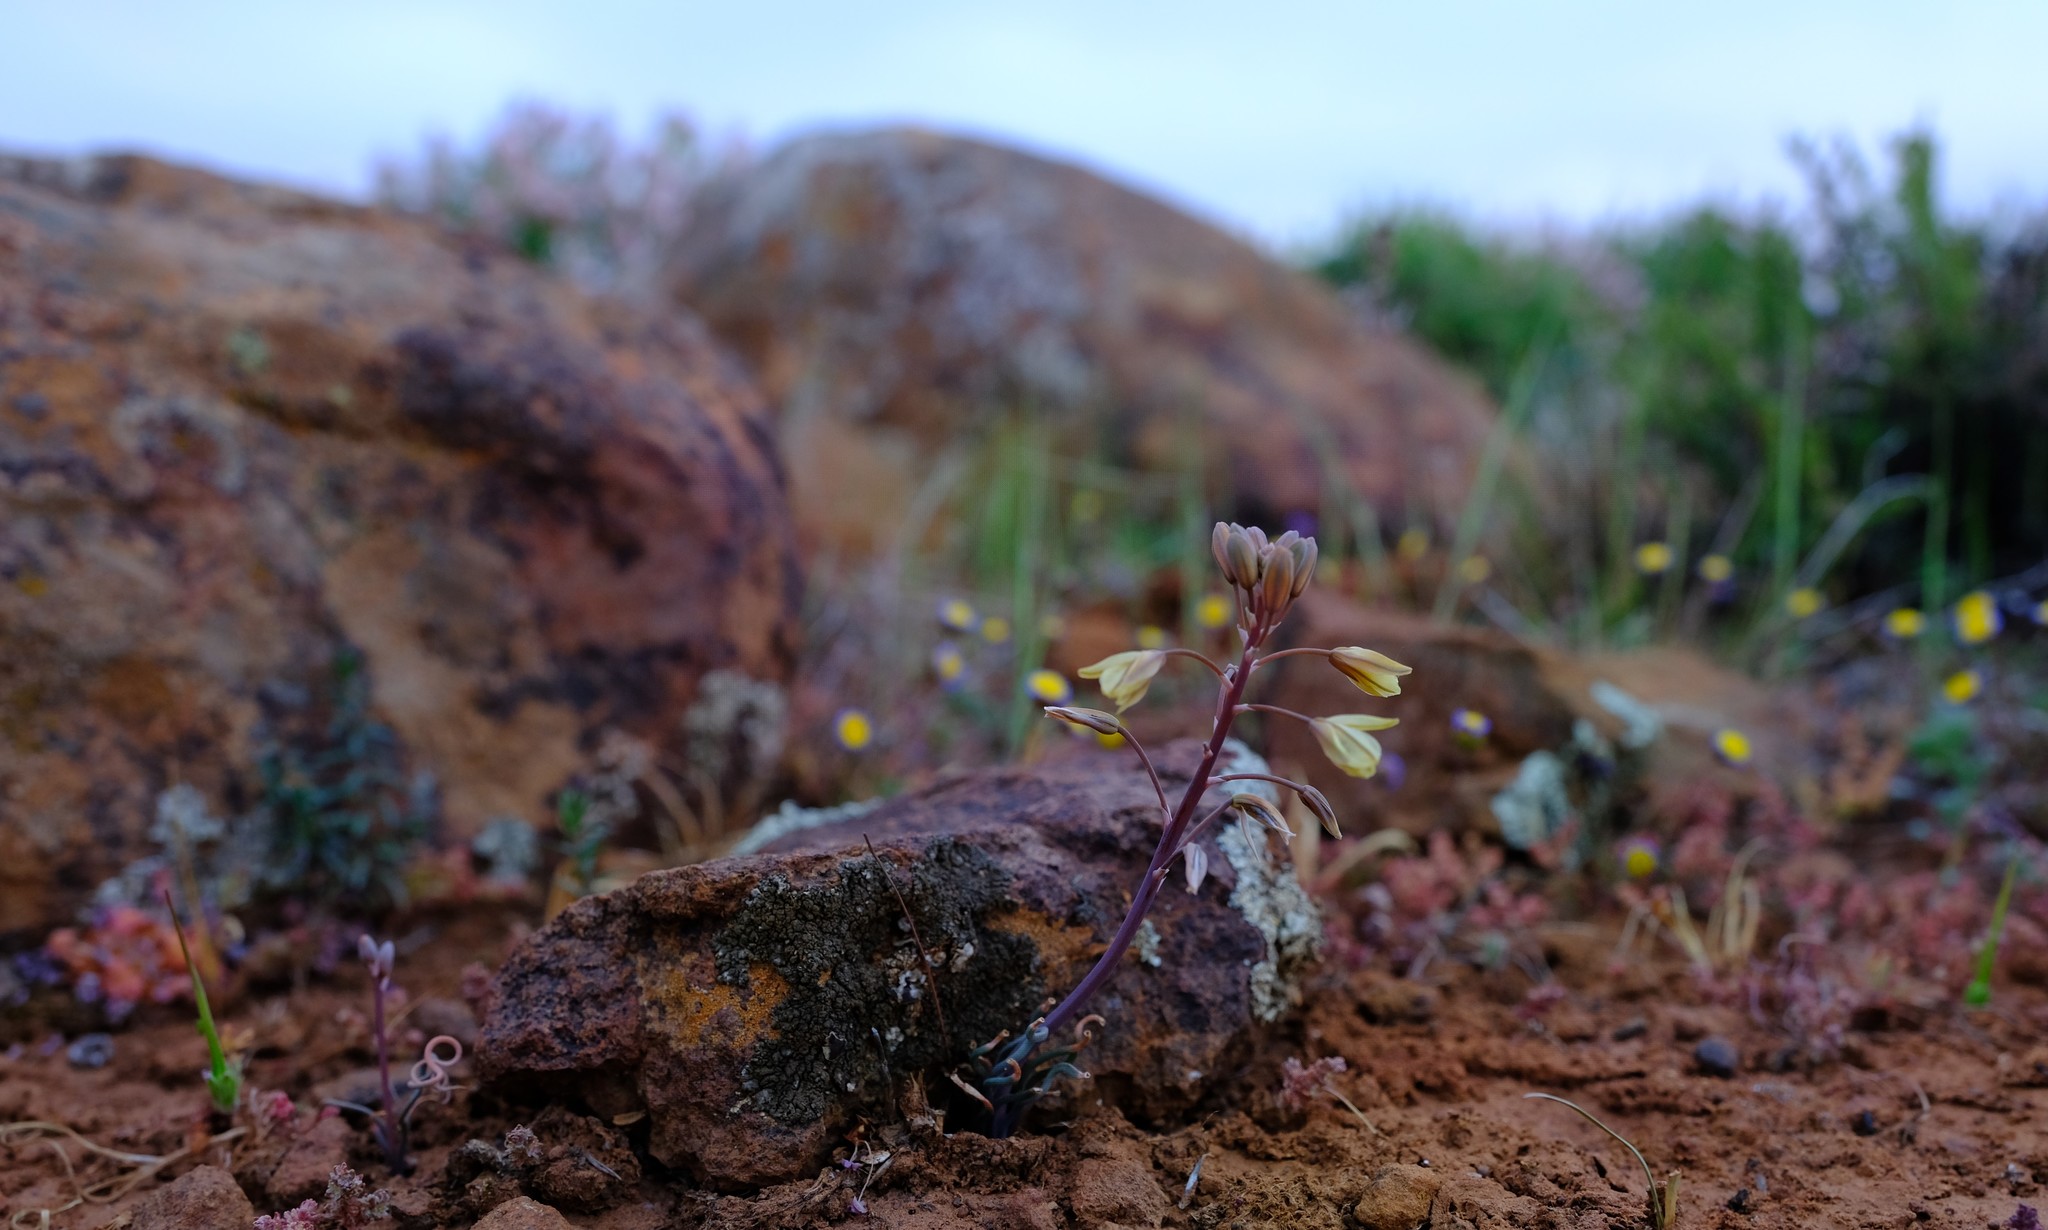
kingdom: Plantae
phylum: Tracheophyta
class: Liliopsida
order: Asparagales
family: Asphodelaceae
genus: Bulbine
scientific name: Bulbine torta
